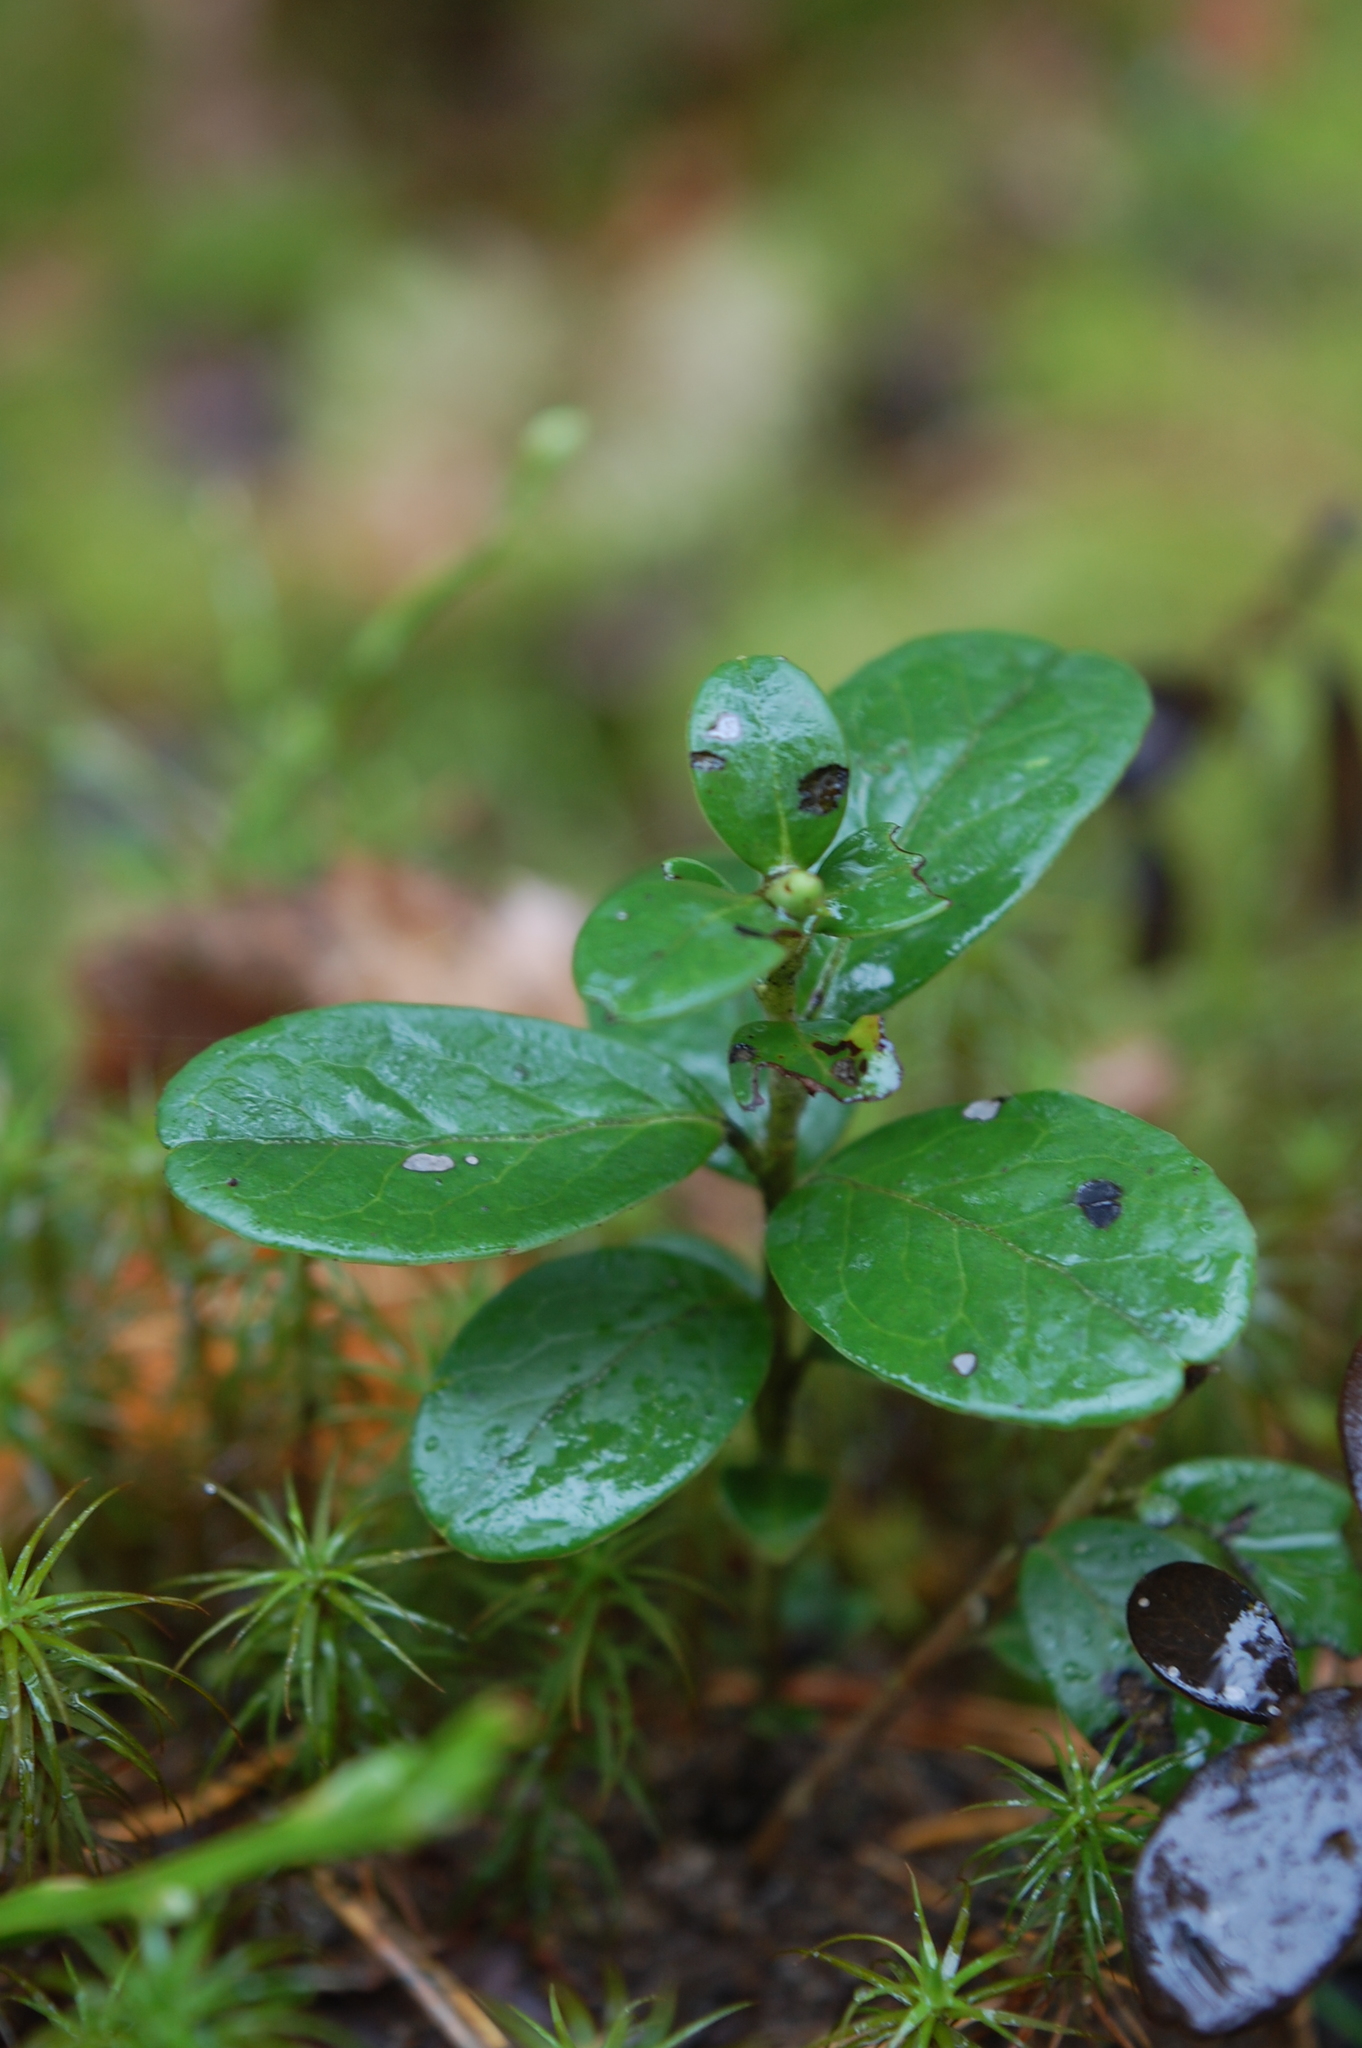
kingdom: Plantae
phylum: Tracheophyta
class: Magnoliopsida
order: Ericales
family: Ericaceae
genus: Vaccinium
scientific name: Vaccinium vitis-idaea
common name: Cowberry
